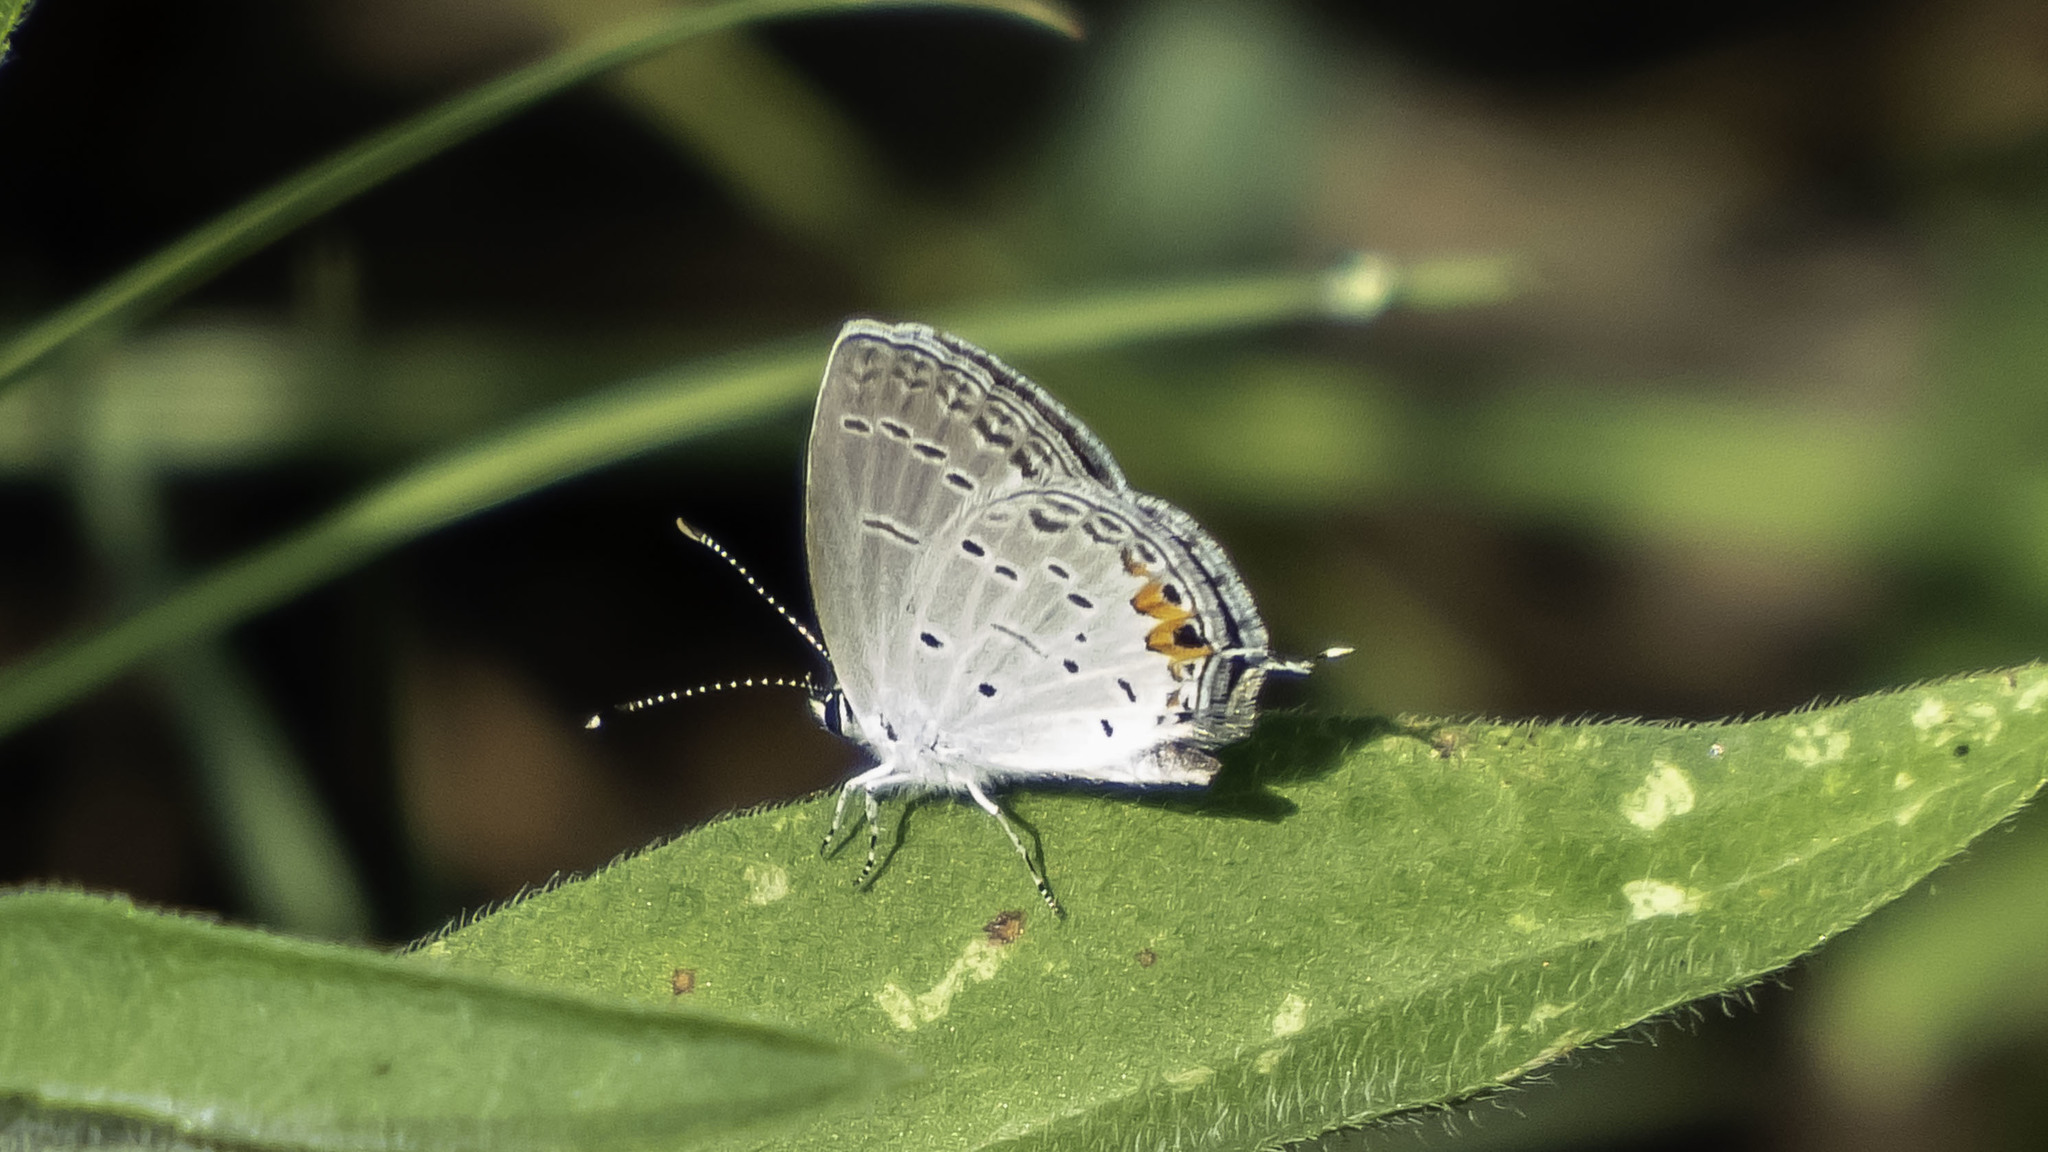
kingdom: Animalia
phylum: Arthropoda
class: Insecta
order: Lepidoptera
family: Lycaenidae
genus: Elkalyce
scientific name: Elkalyce comyntas
